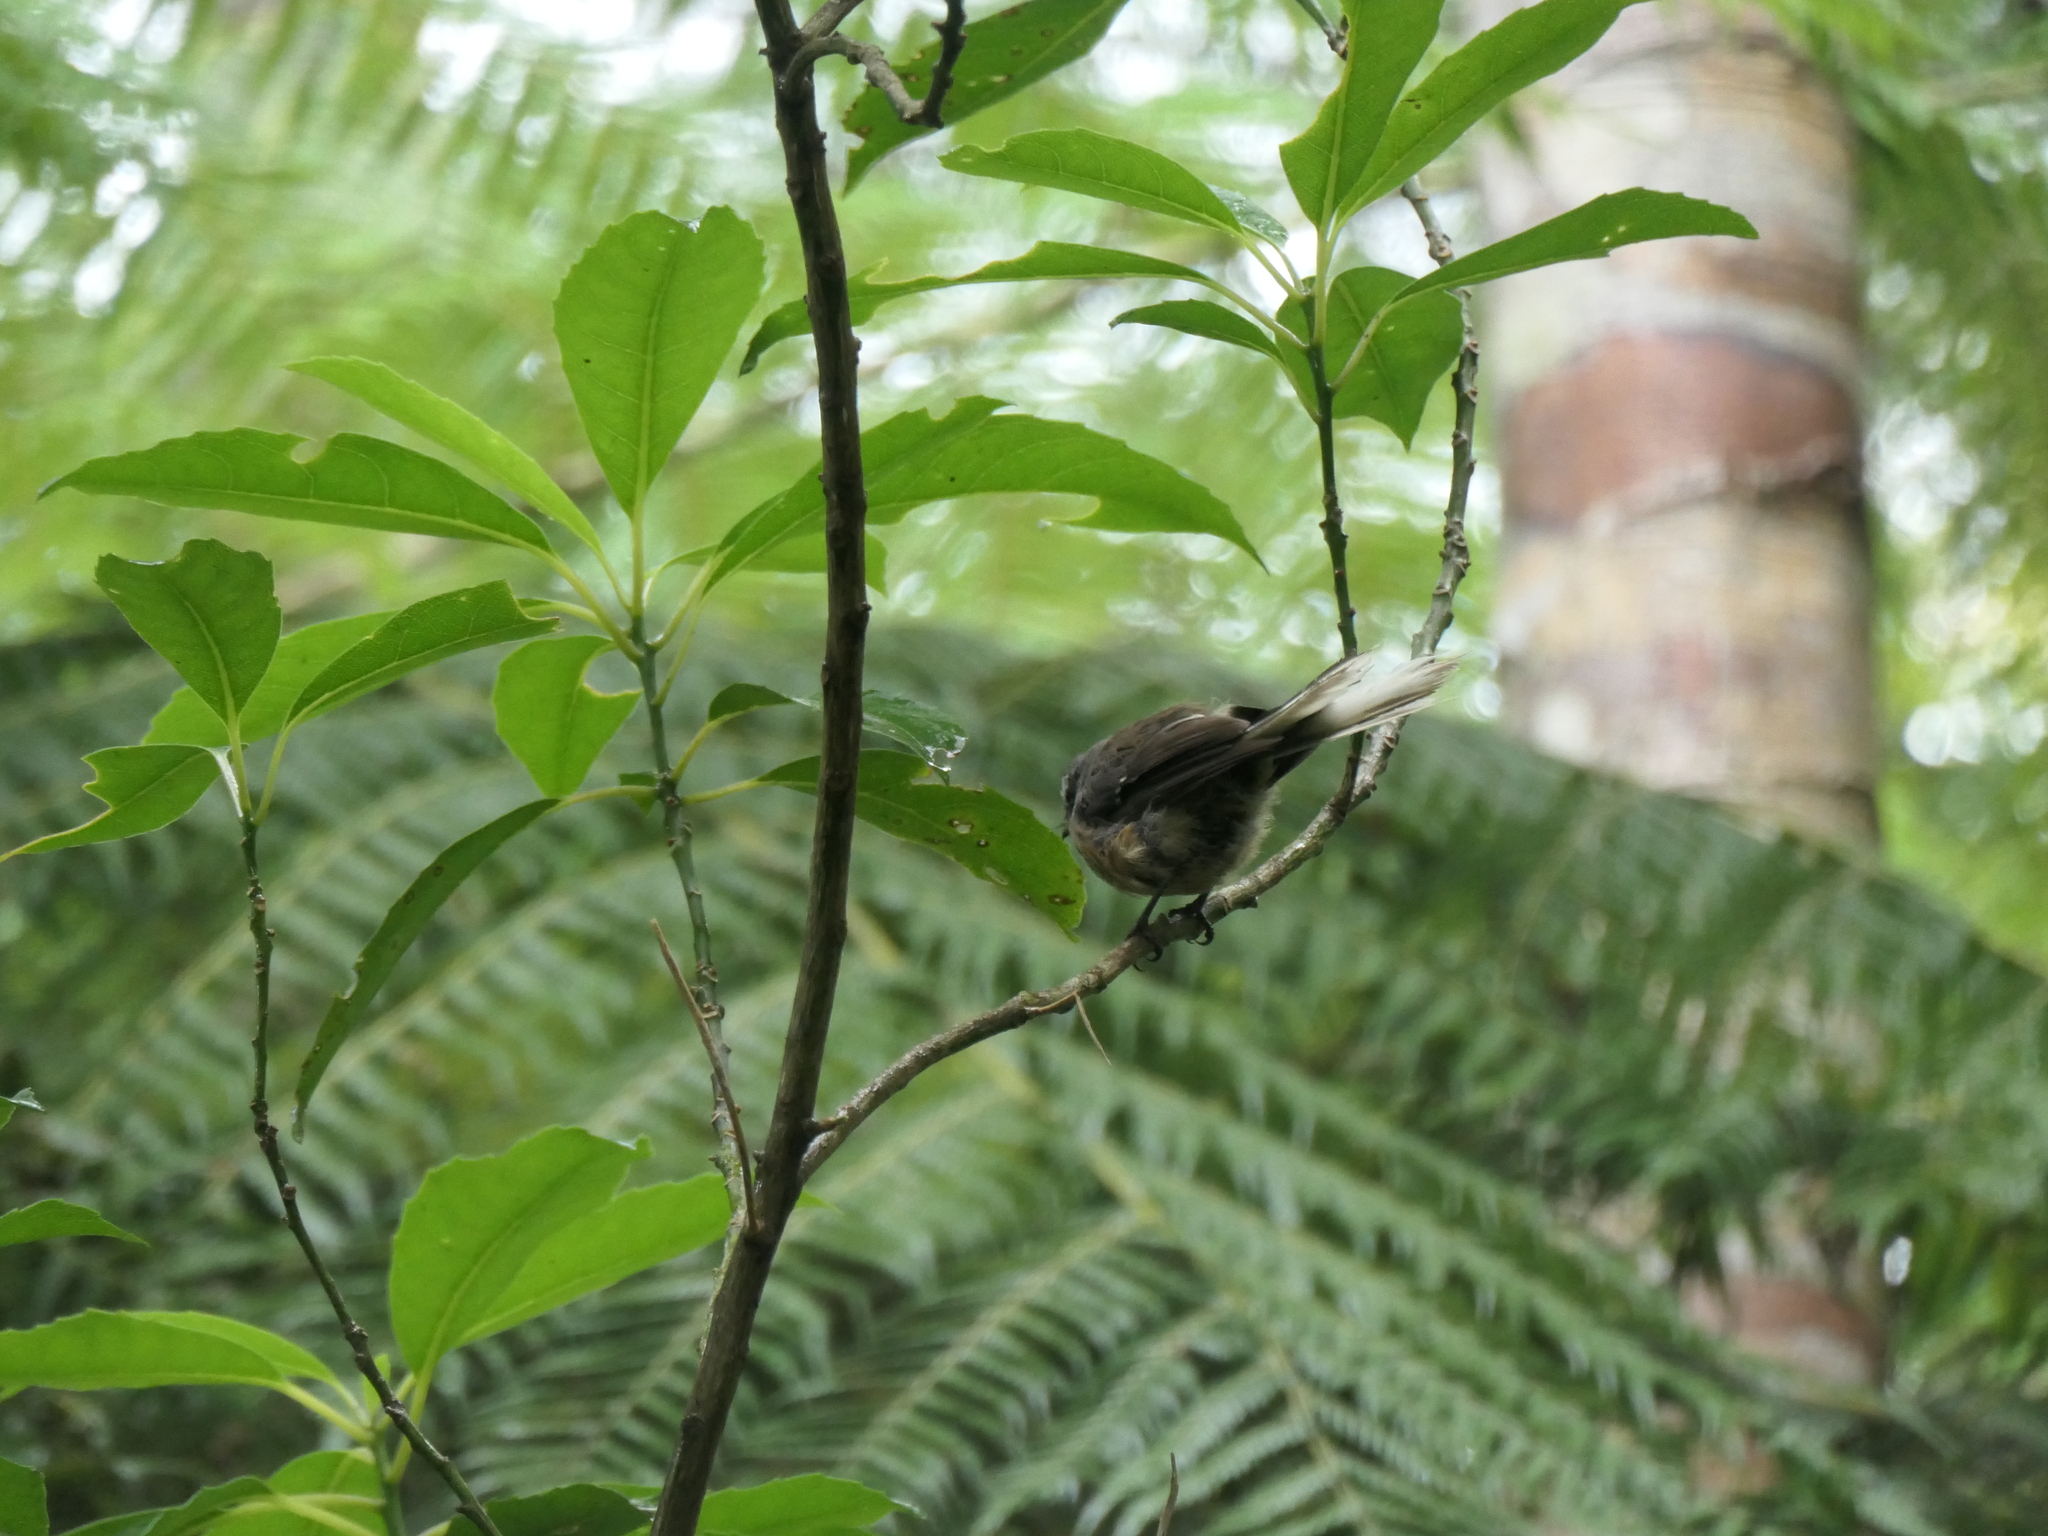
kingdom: Animalia
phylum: Chordata
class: Aves
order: Passeriformes
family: Rhipiduridae
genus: Rhipidura
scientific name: Rhipidura fuliginosa
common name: New zealand fantail
